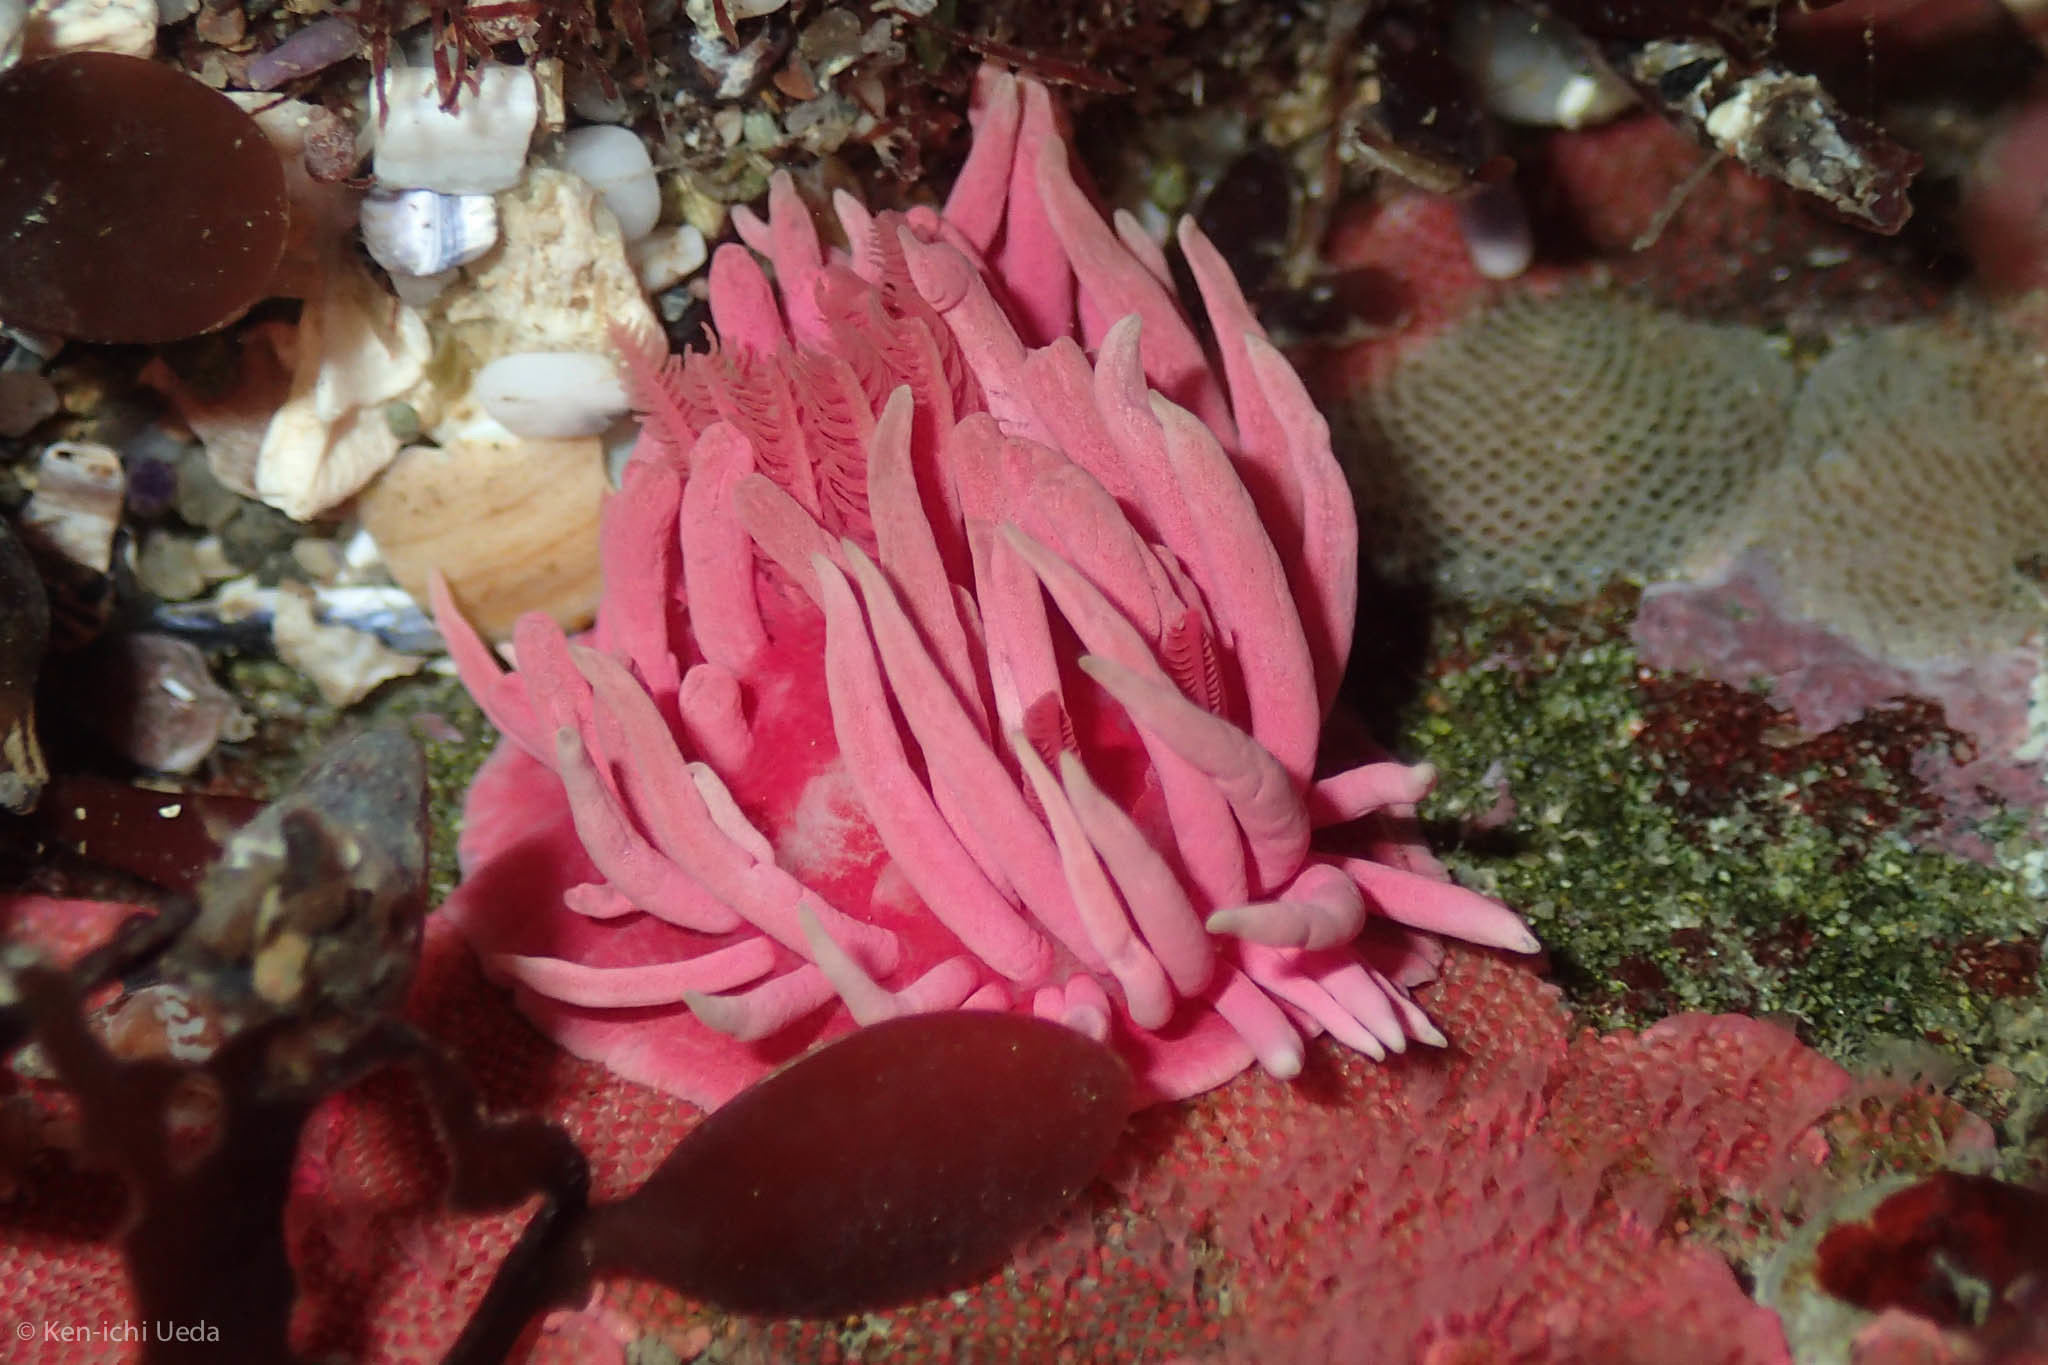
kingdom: Animalia
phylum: Mollusca
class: Gastropoda
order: Nudibranchia
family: Goniodorididae
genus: Okenia
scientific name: Okenia
